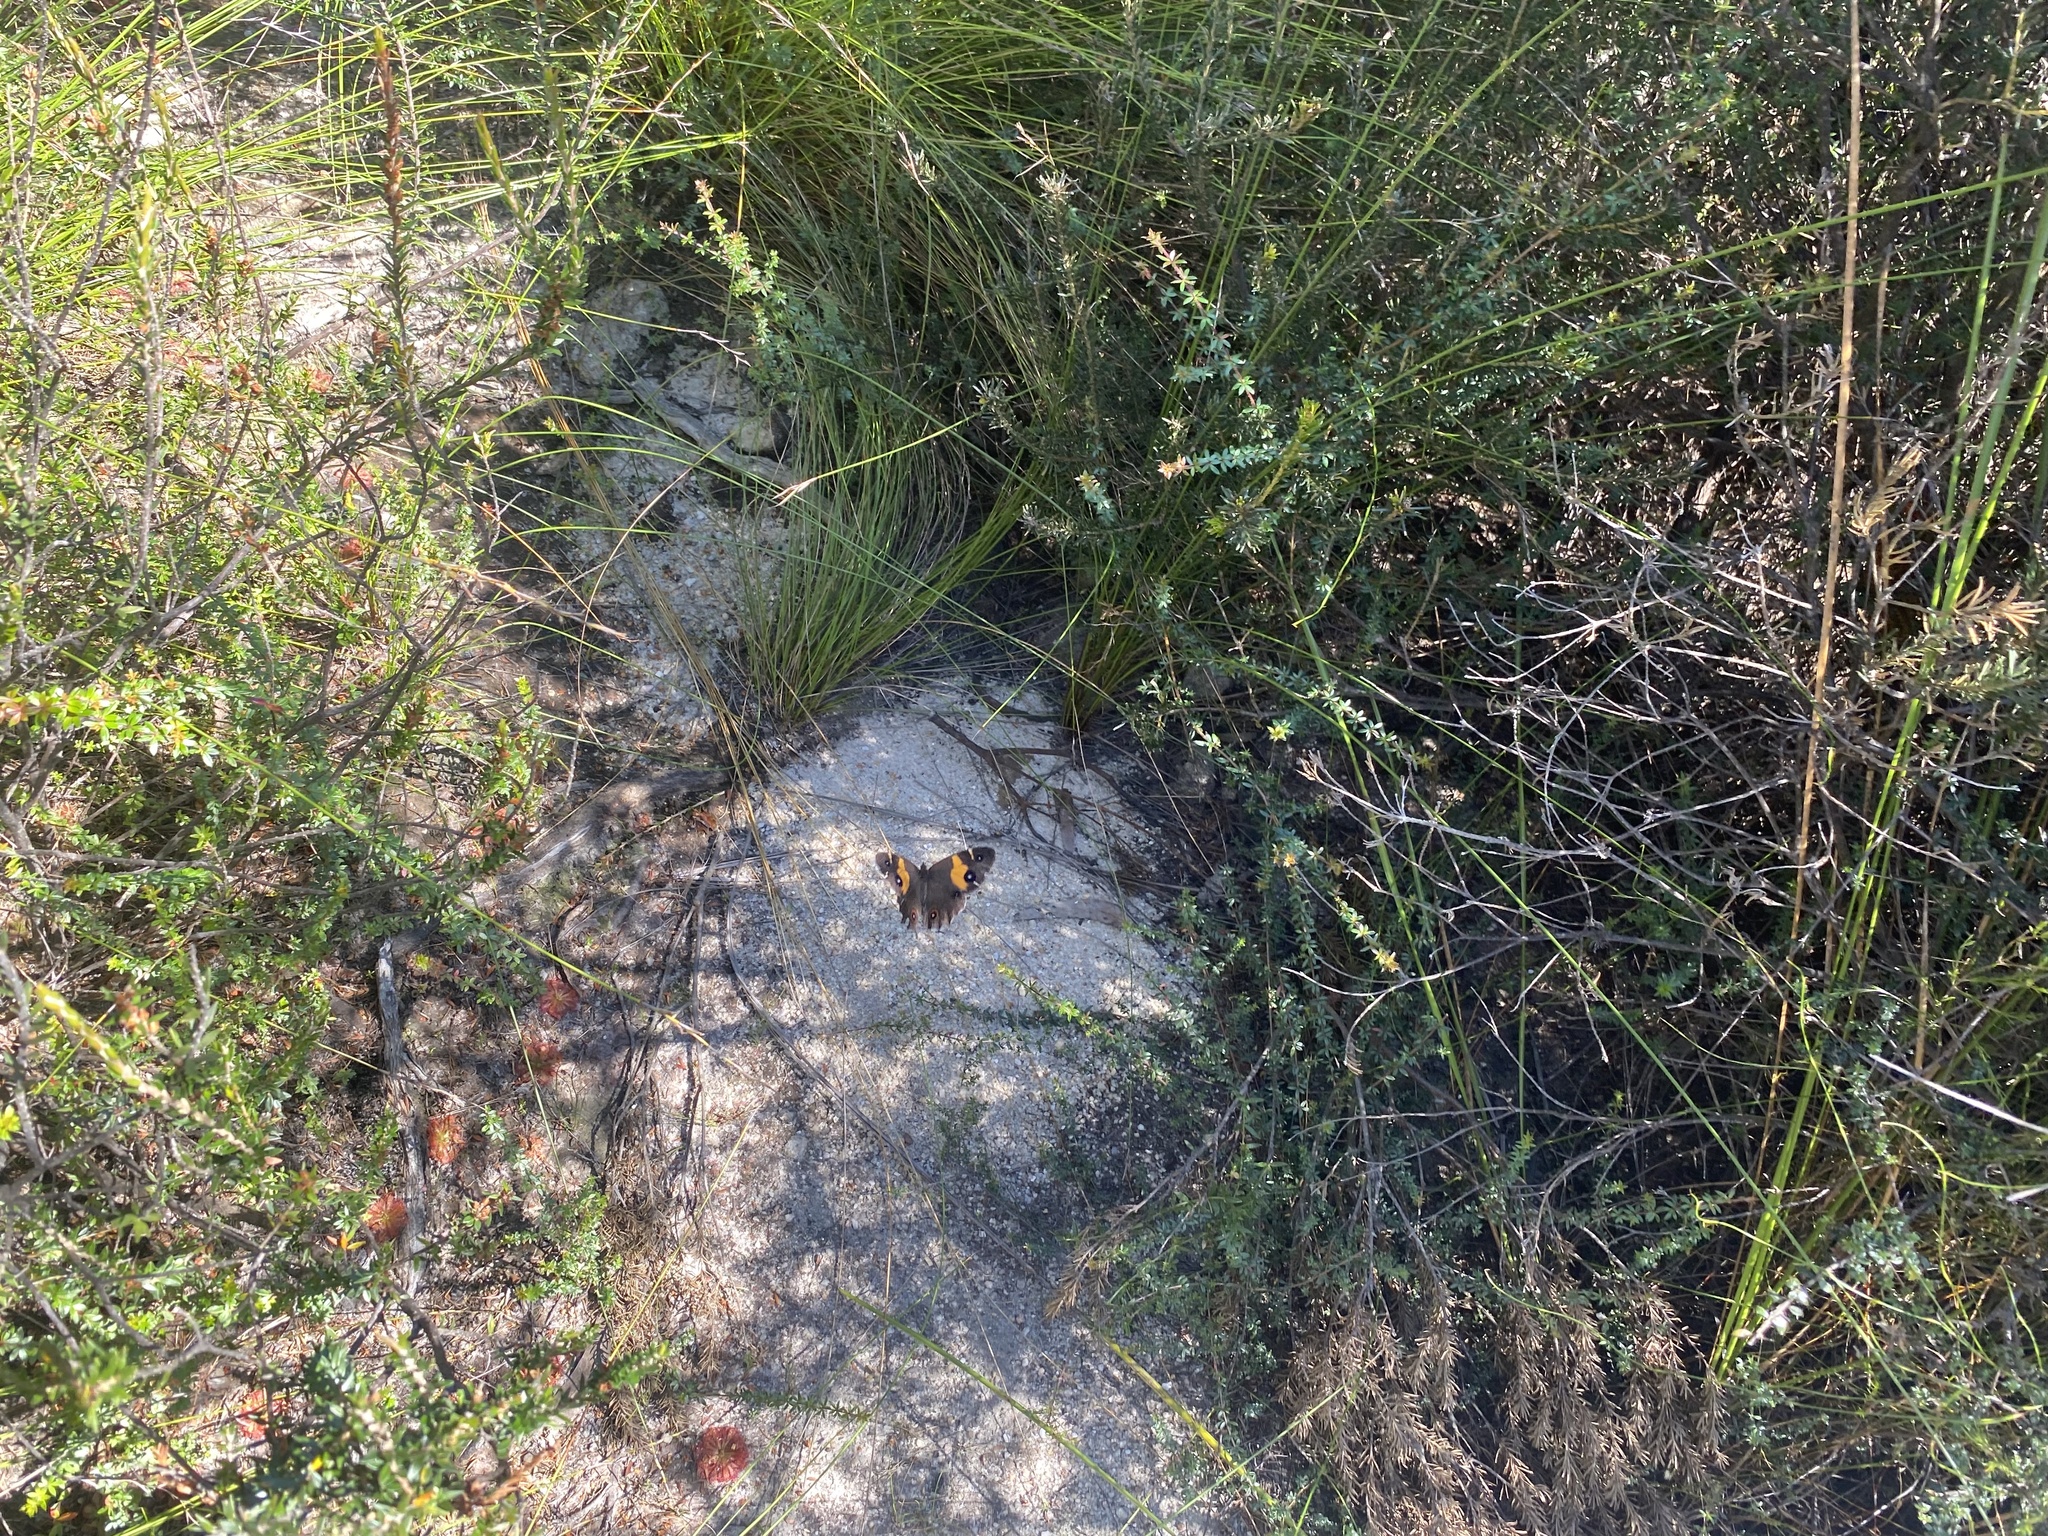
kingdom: Animalia
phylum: Arthropoda
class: Insecta
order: Lepidoptera
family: Nymphalidae
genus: Tisiphone
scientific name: Tisiphone abeona
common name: Swordgrass brown
